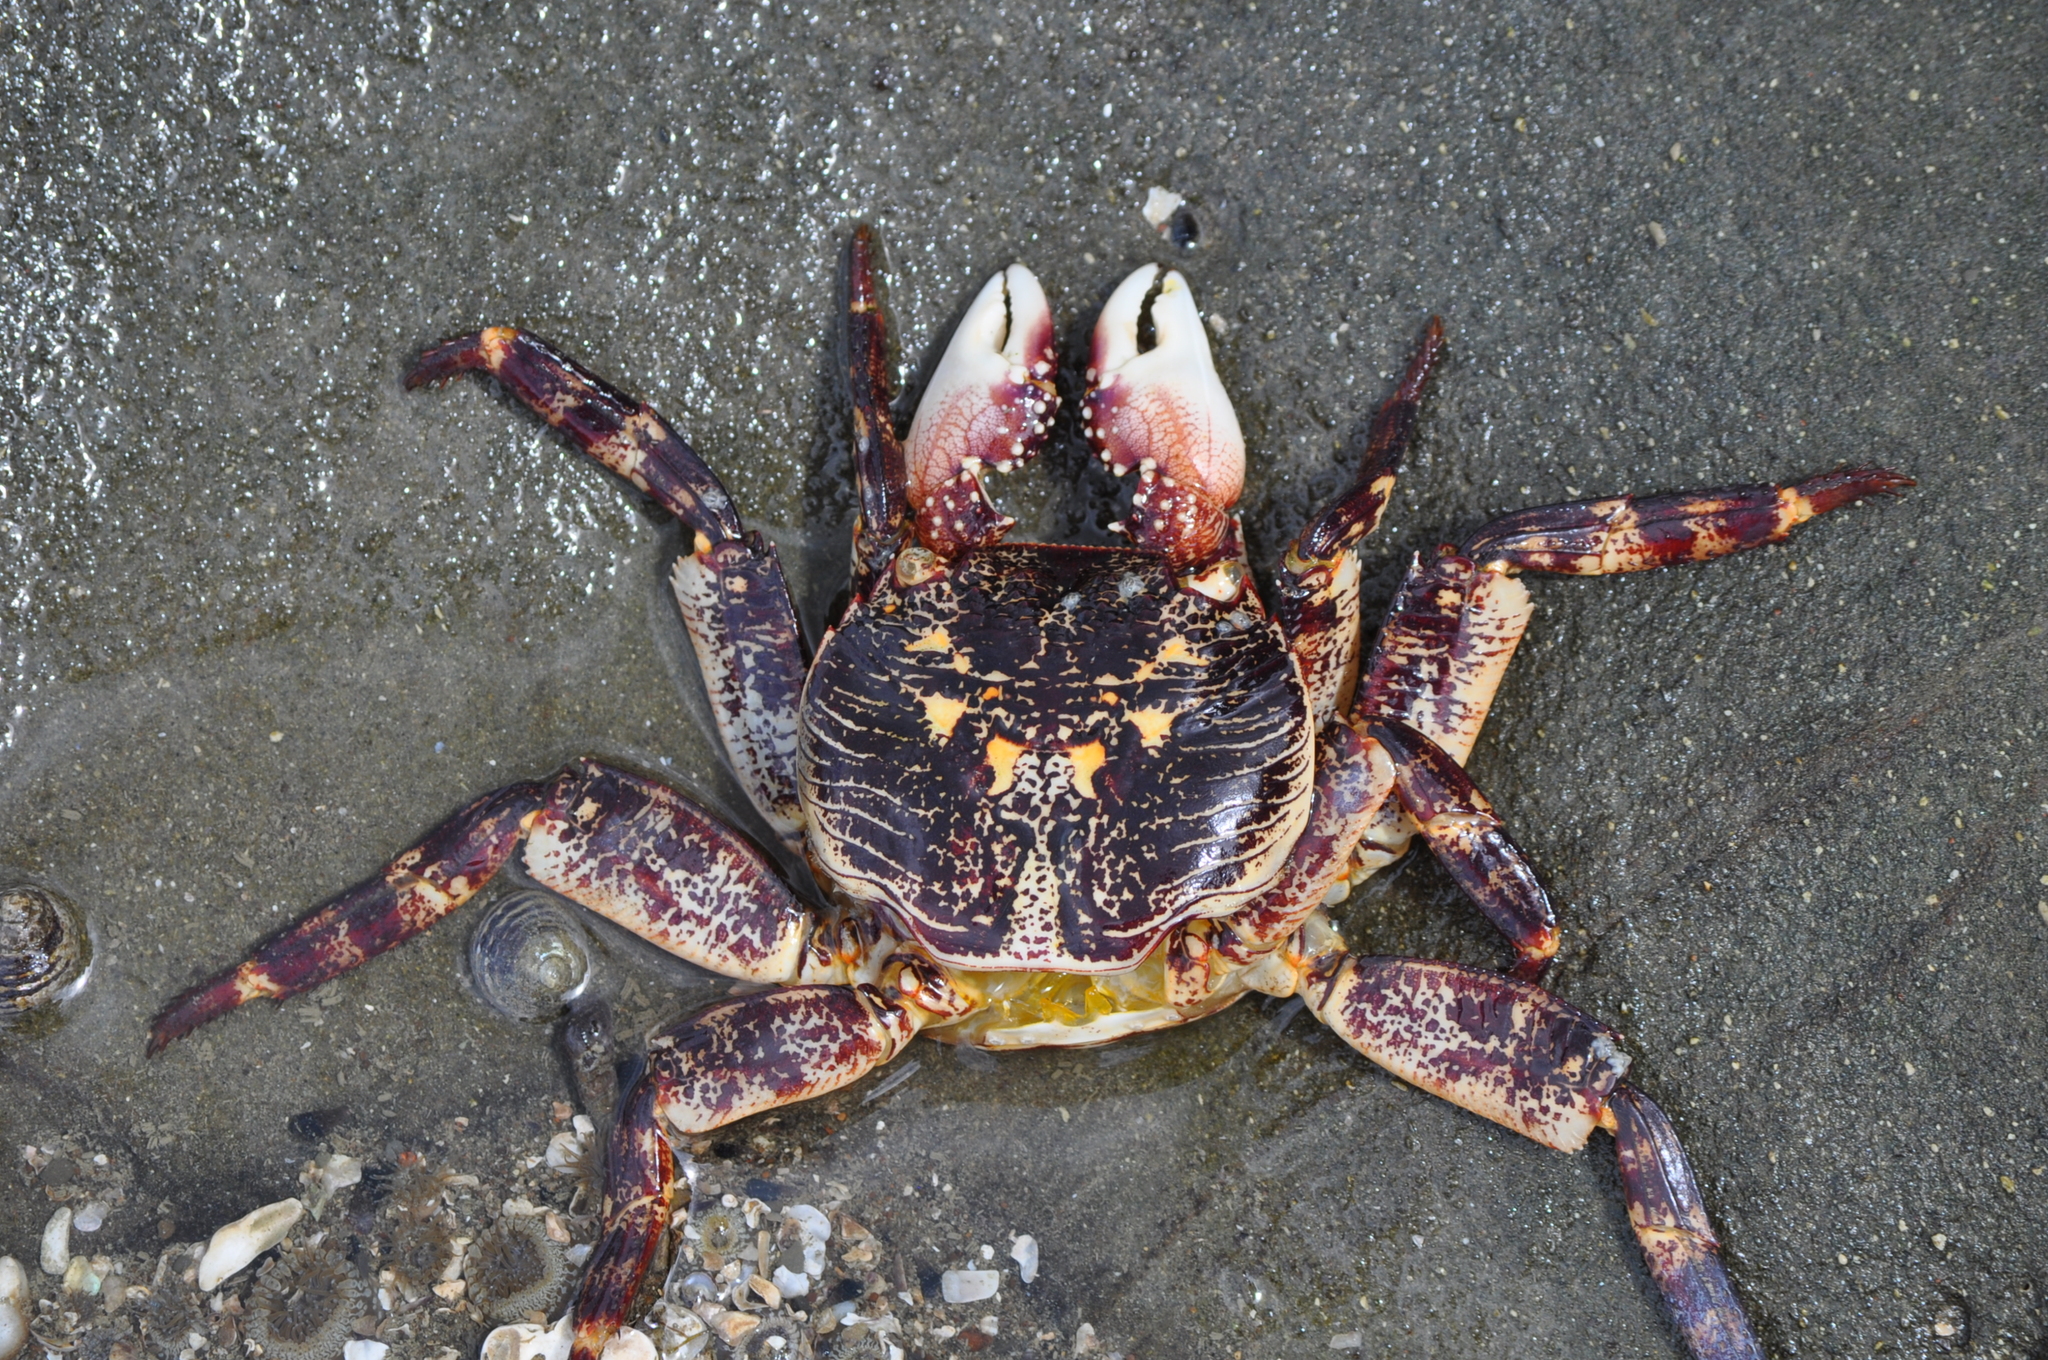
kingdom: Animalia
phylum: Arthropoda
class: Malacostraca
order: Decapoda
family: Grapsidae
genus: Leptograpsus
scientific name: Leptograpsus variegatus
